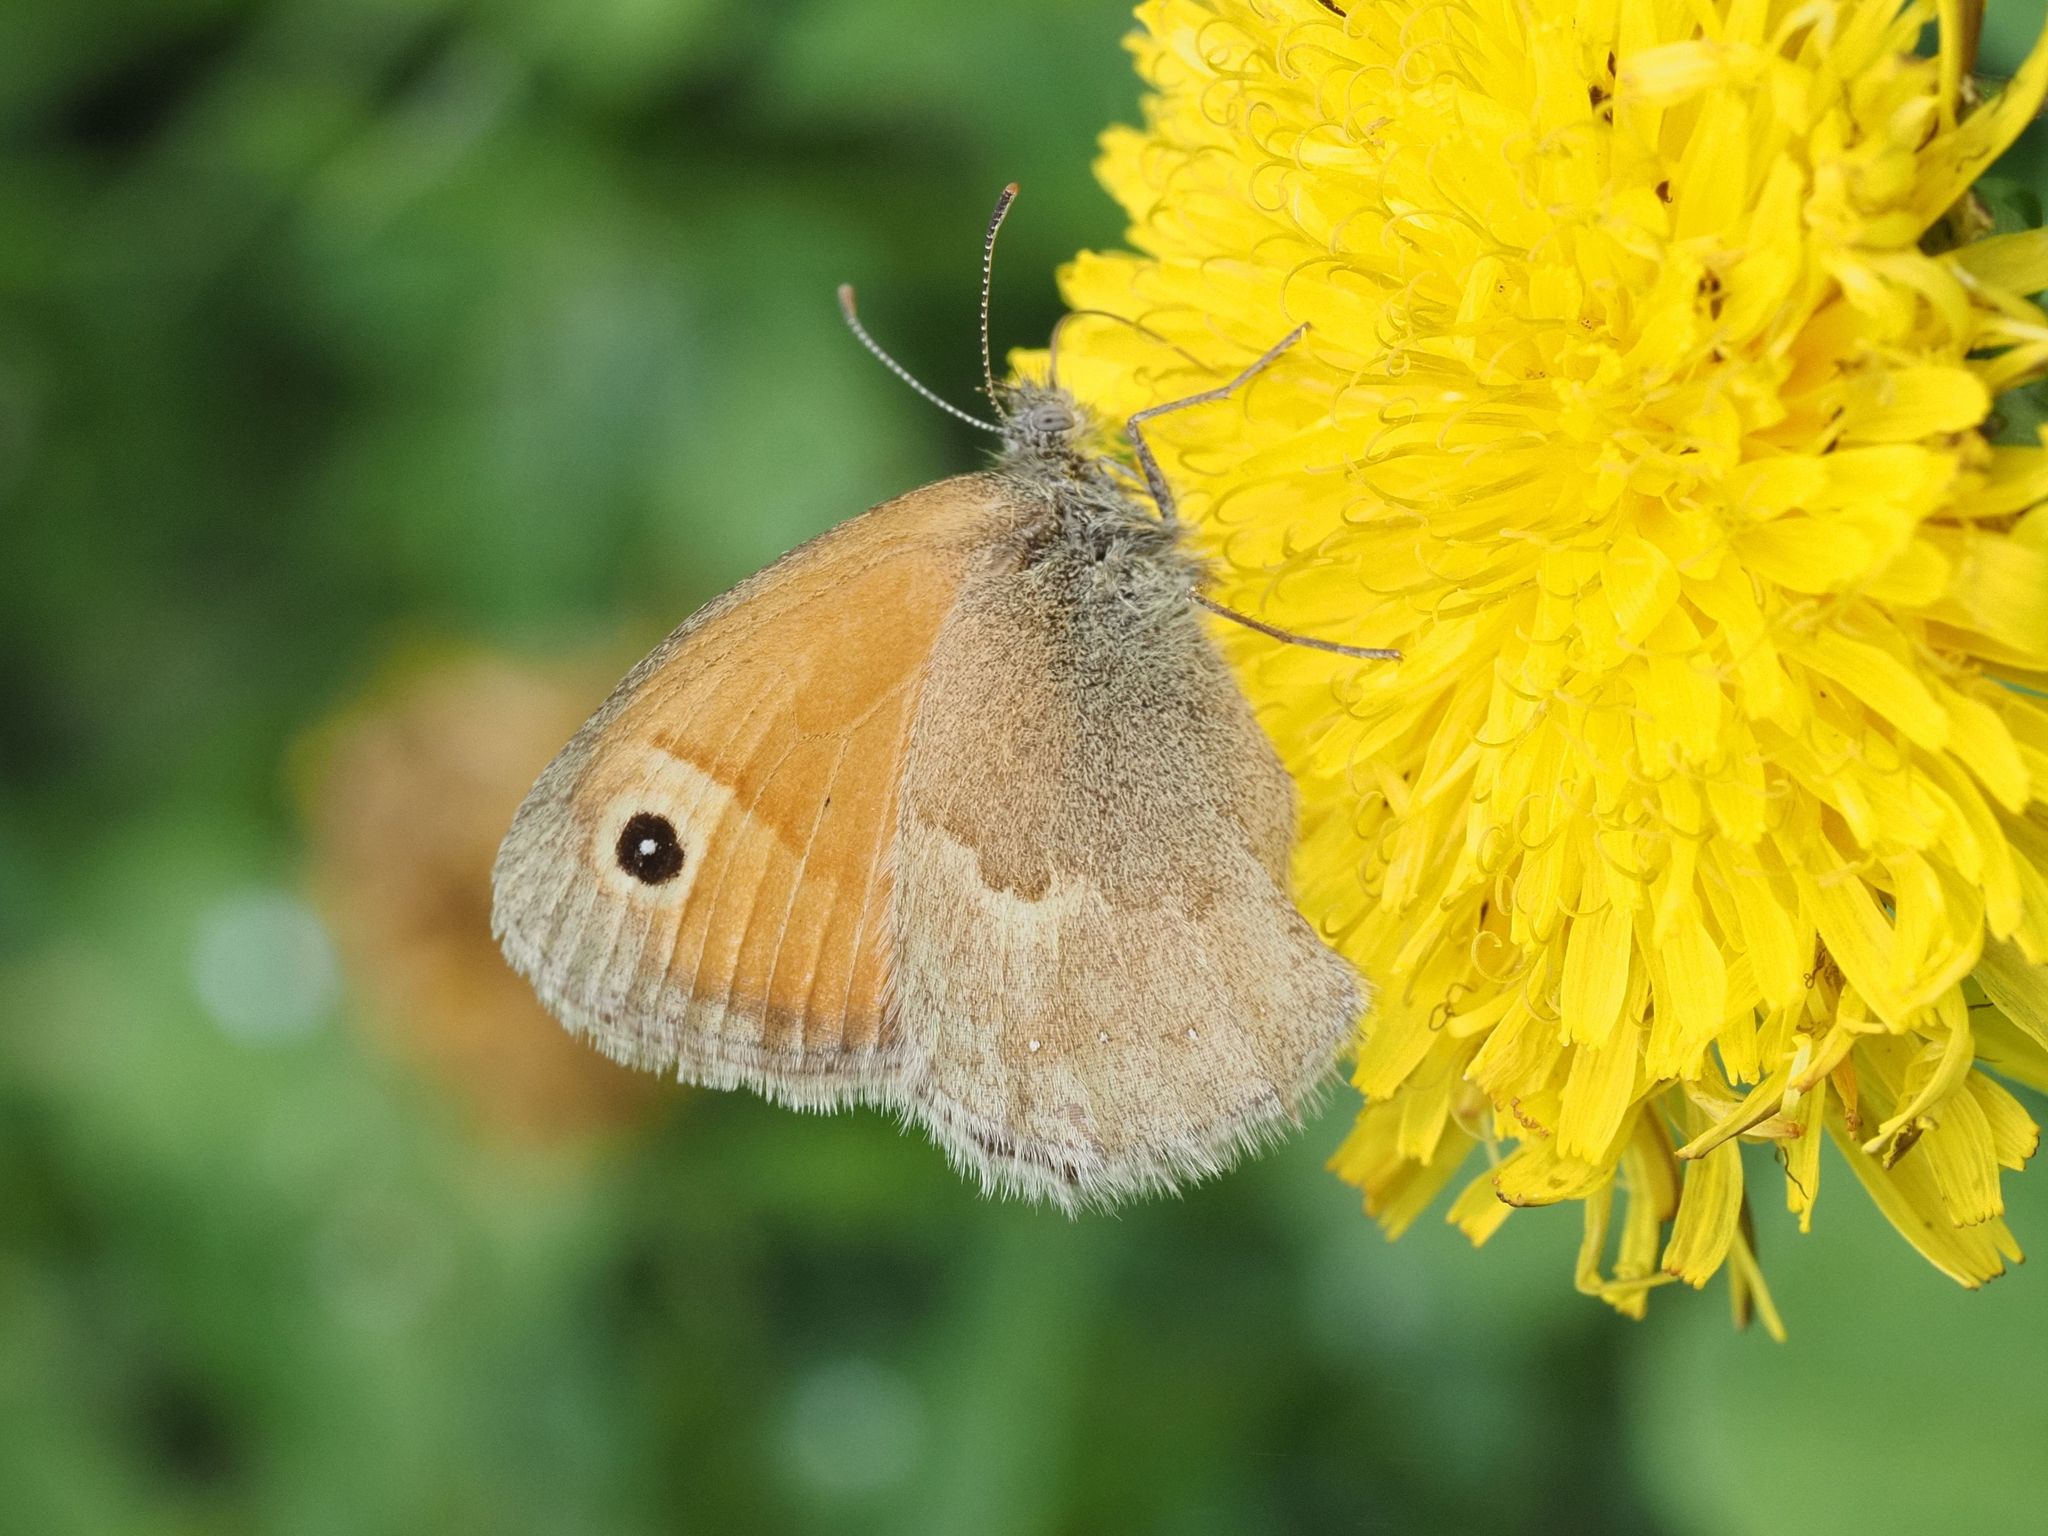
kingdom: Animalia
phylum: Arthropoda
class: Insecta
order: Lepidoptera
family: Nymphalidae
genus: Coenonympha
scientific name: Coenonympha pamphilus
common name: Small heath
